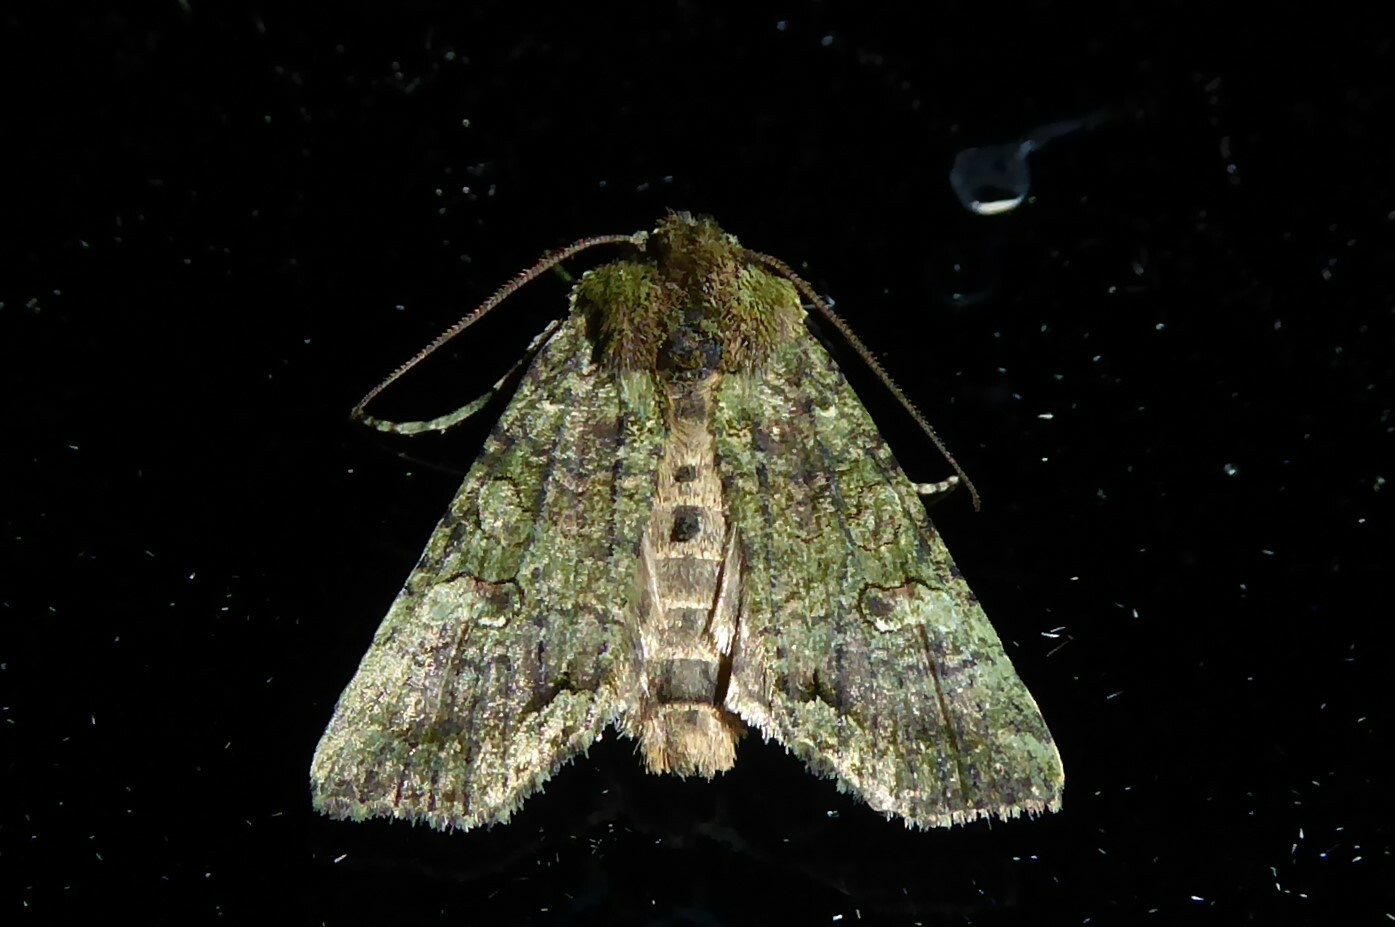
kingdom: Animalia
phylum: Arthropoda
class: Insecta
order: Lepidoptera
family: Noctuidae
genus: Meterana
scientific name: Meterana levis
